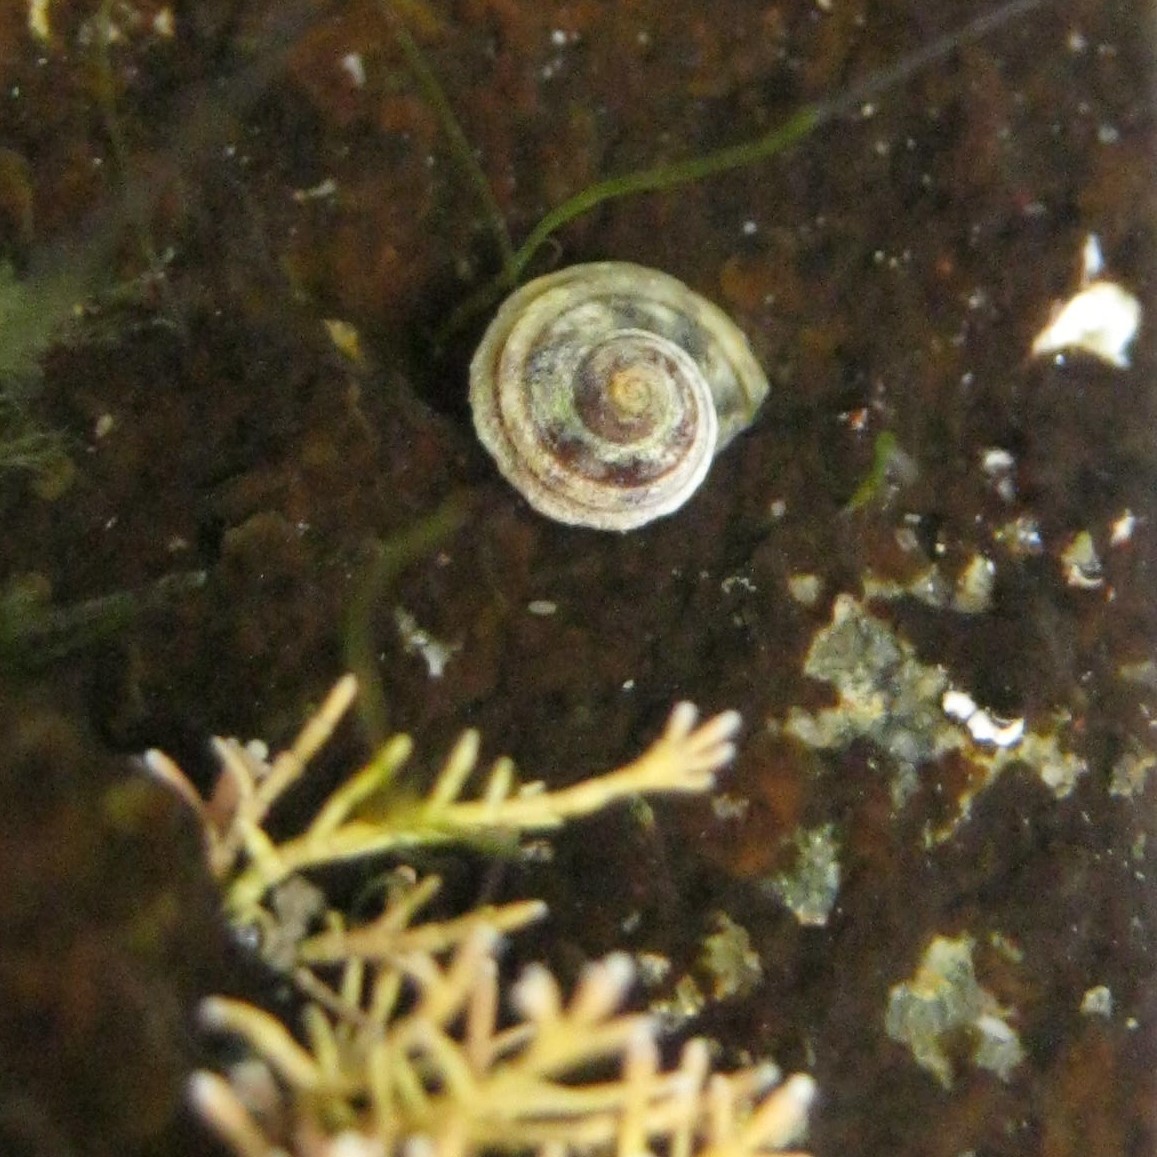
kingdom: Animalia
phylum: Mollusca
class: Gastropoda
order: Littorinimorpha
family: Littorinidae
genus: Risellopsis
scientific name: Risellopsis varia
